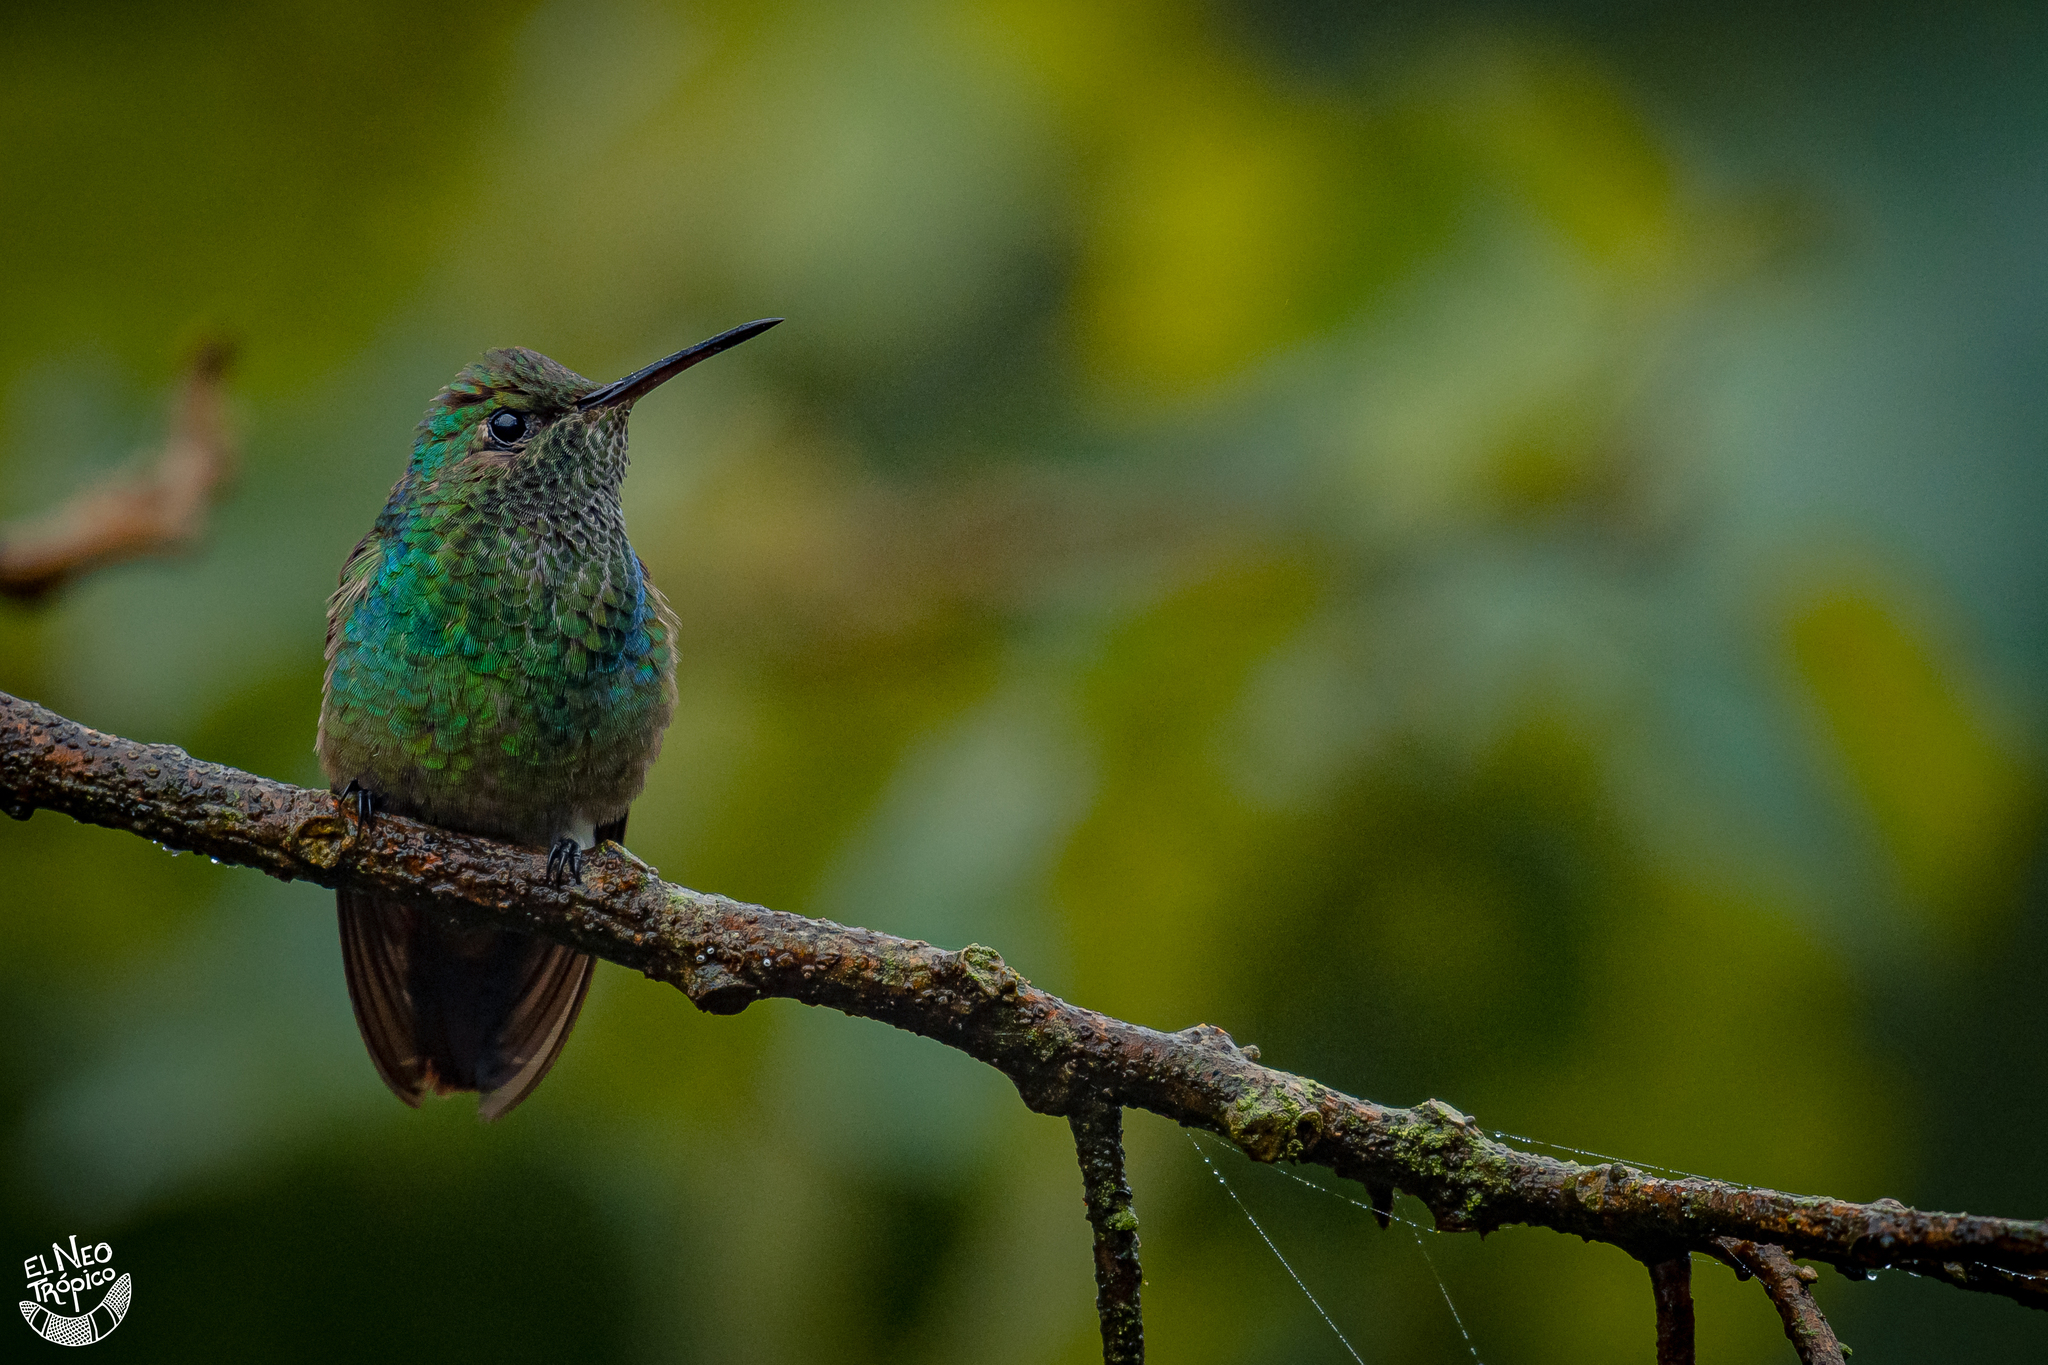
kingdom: Animalia
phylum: Chordata
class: Aves
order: Apodiformes
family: Trochilidae
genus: Saucerottia
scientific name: Saucerottia beryllina
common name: Berylline hummingbird
